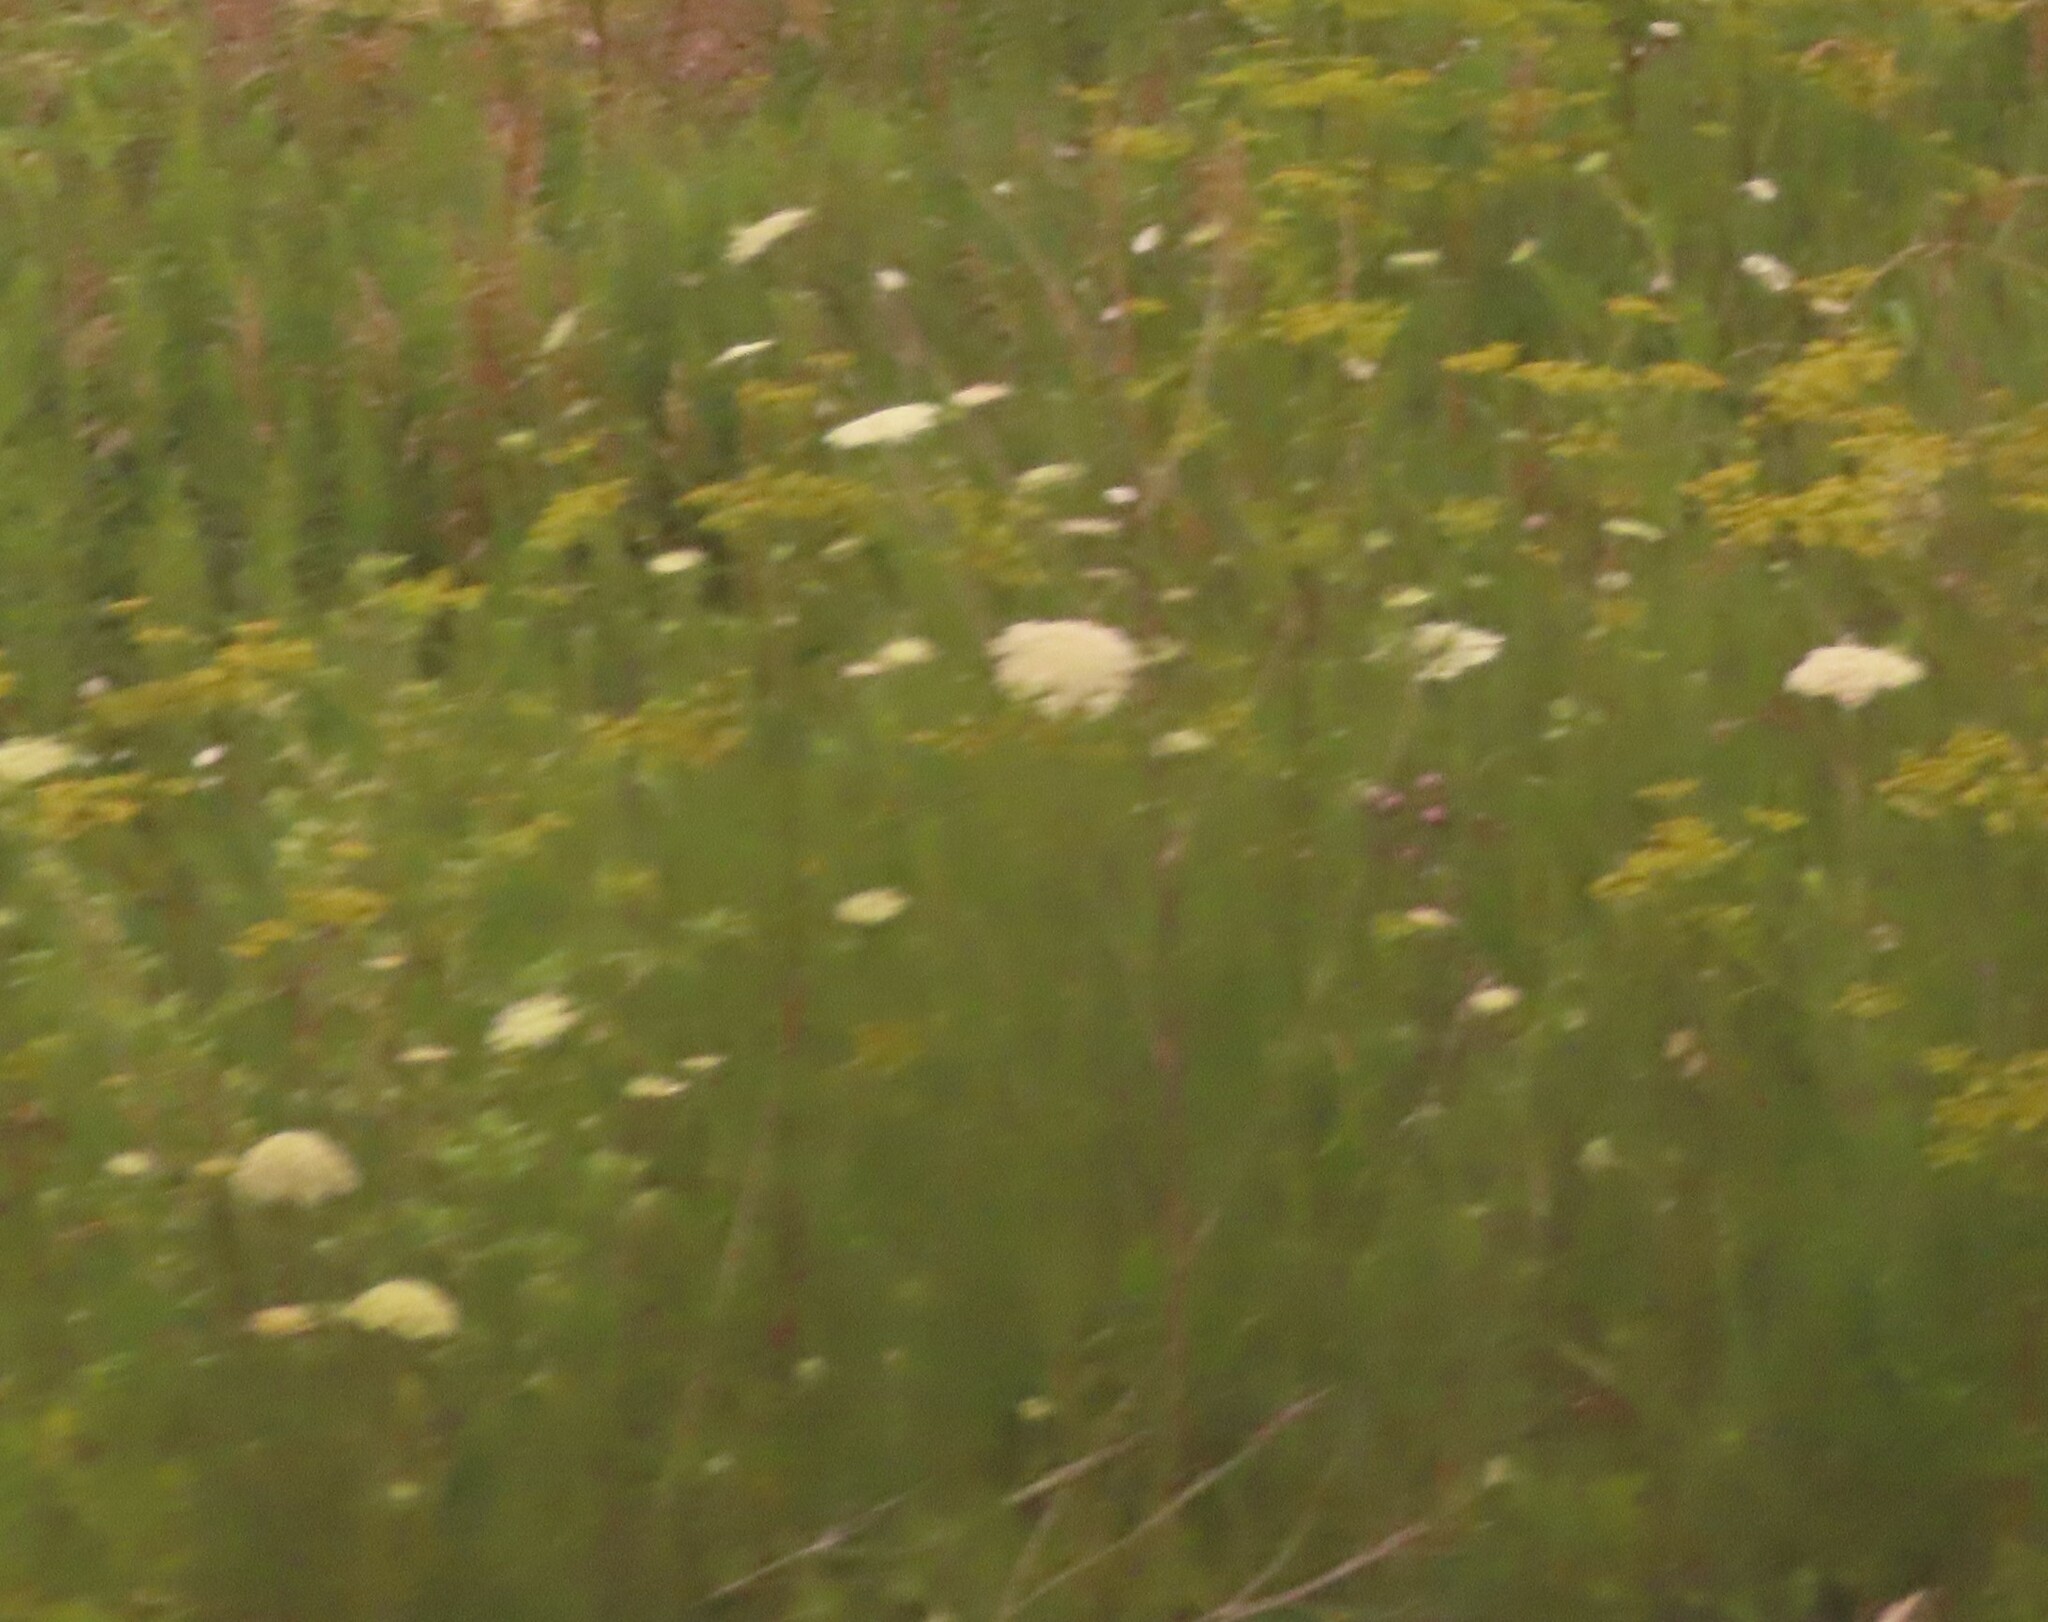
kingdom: Plantae
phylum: Tracheophyta
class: Magnoliopsida
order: Apiales
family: Apiaceae
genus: Daucus
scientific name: Daucus carota
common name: Wild carrot
